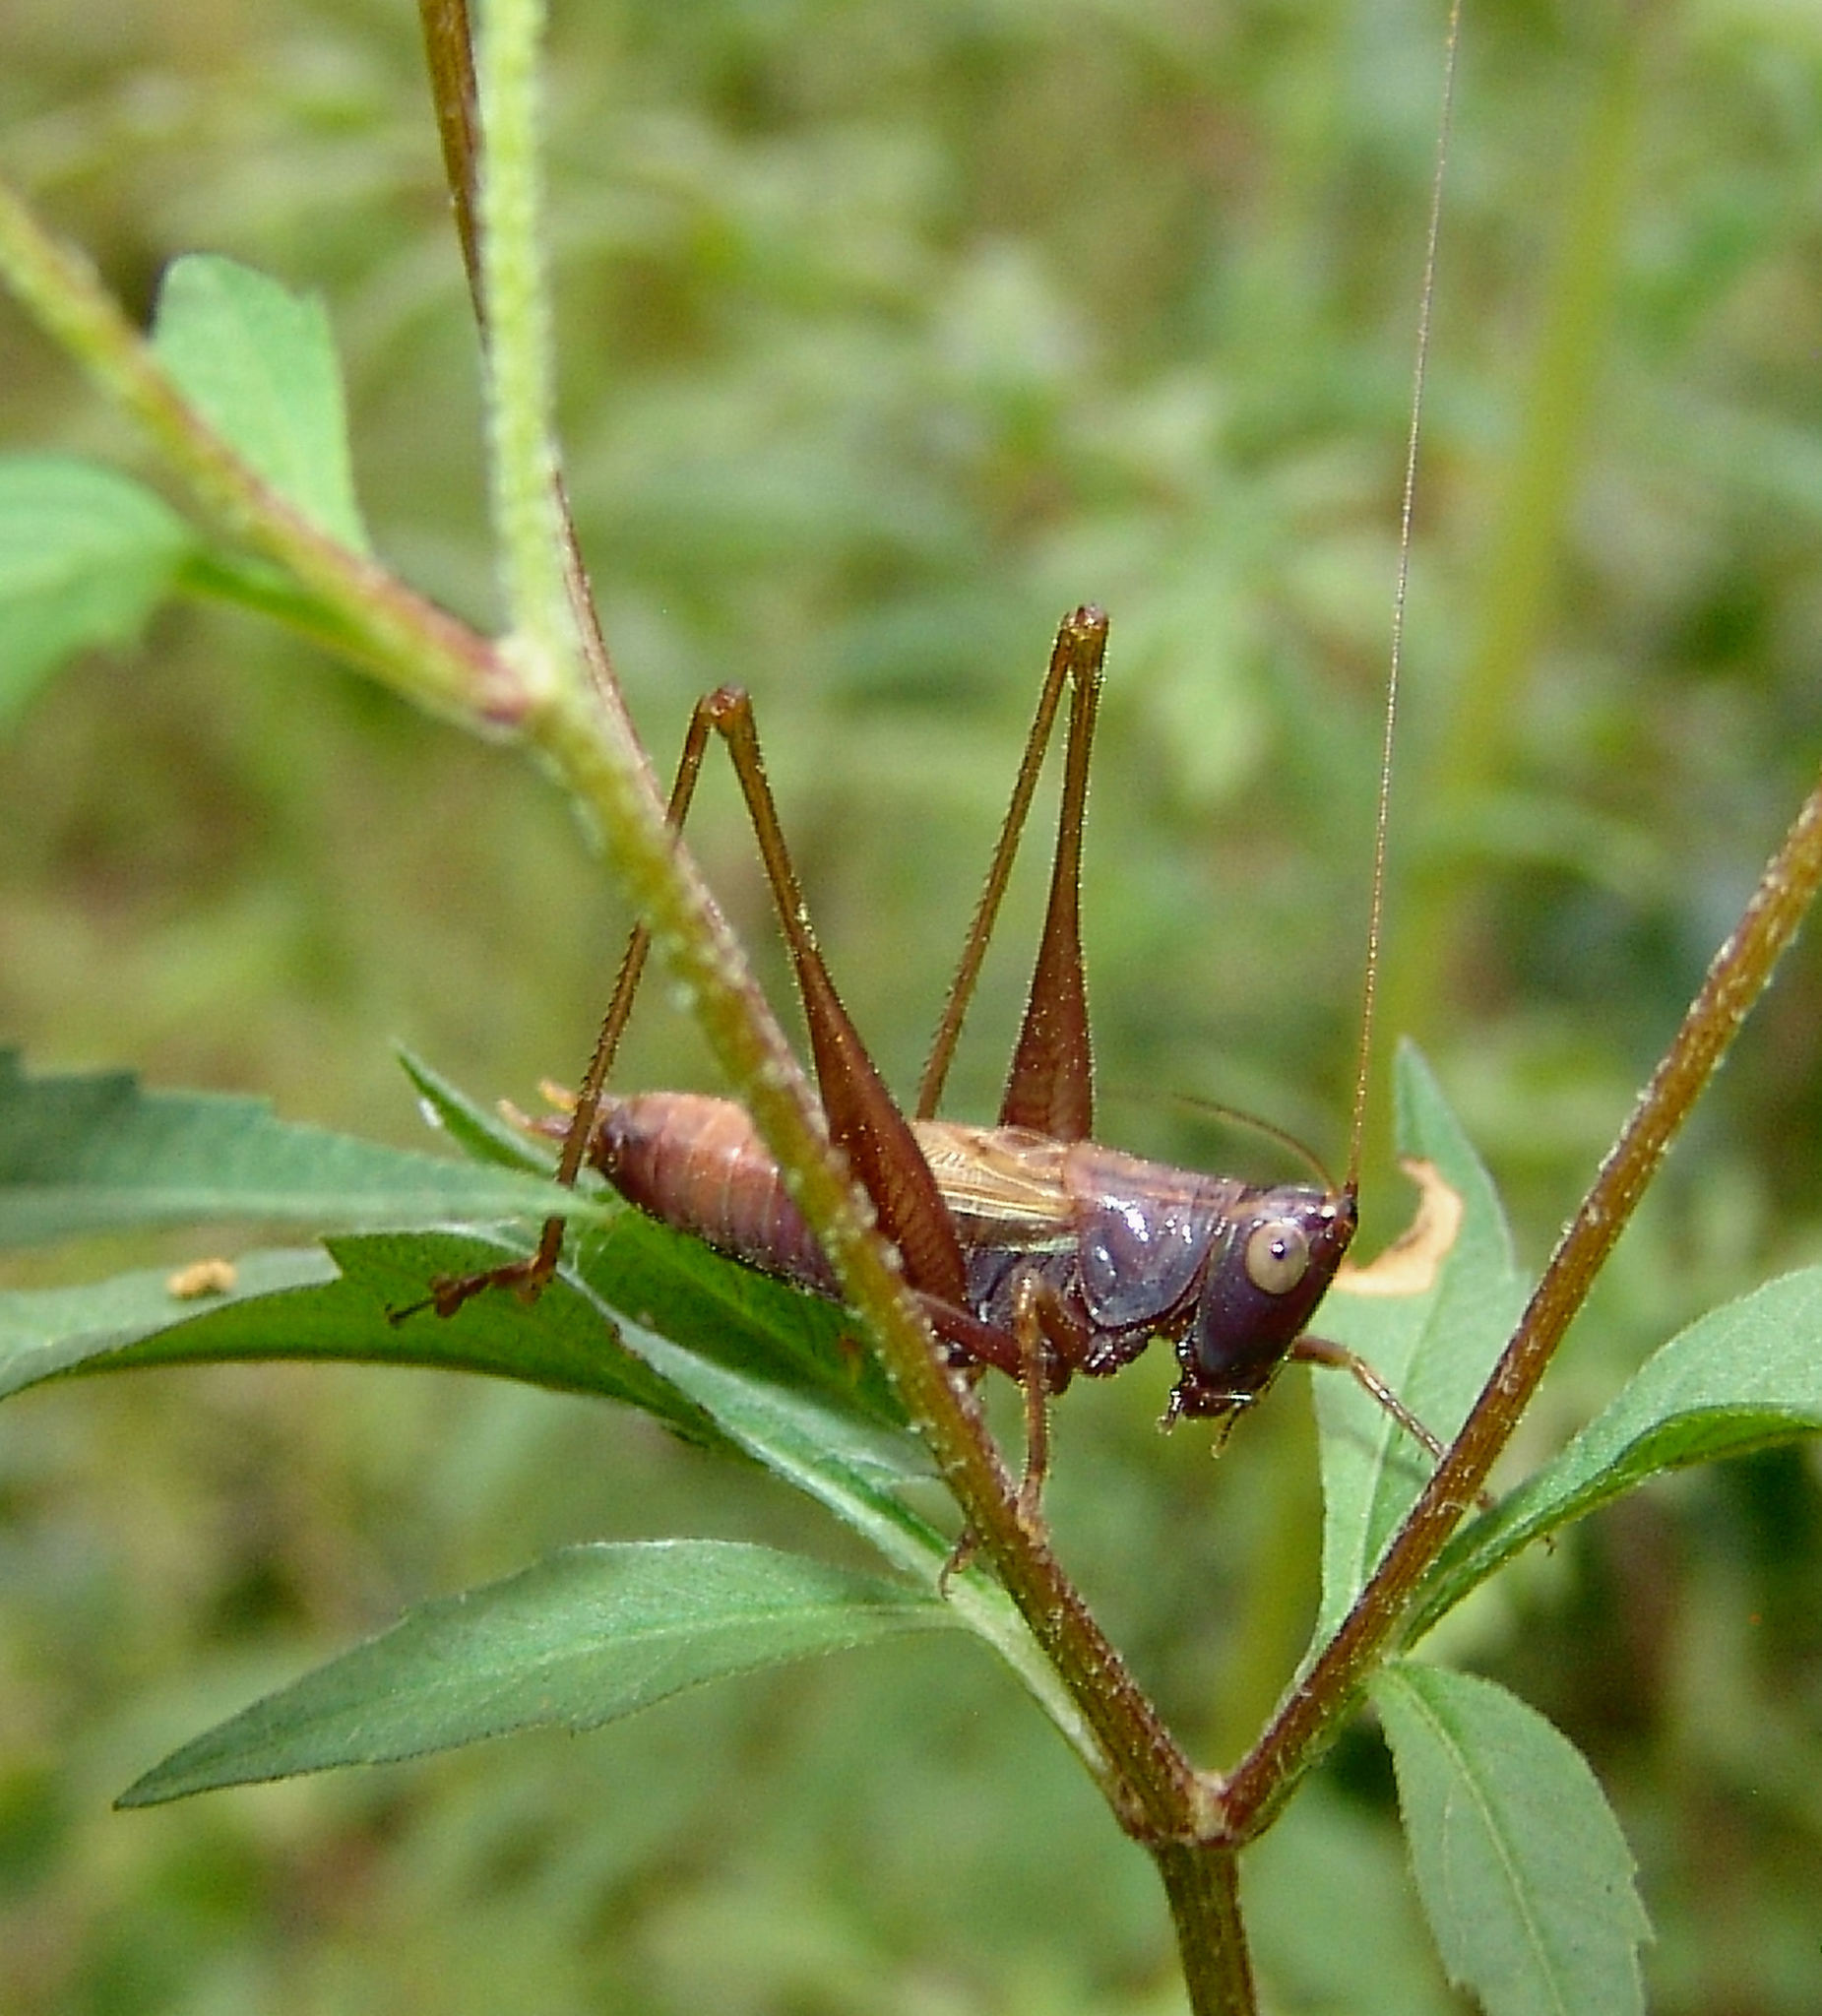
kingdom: Animalia
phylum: Arthropoda
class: Insecta
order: Orthoptera
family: Tettigoniidae
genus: Conocephalus
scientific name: Conocephalus strictus
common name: Straight-lanced katydid
